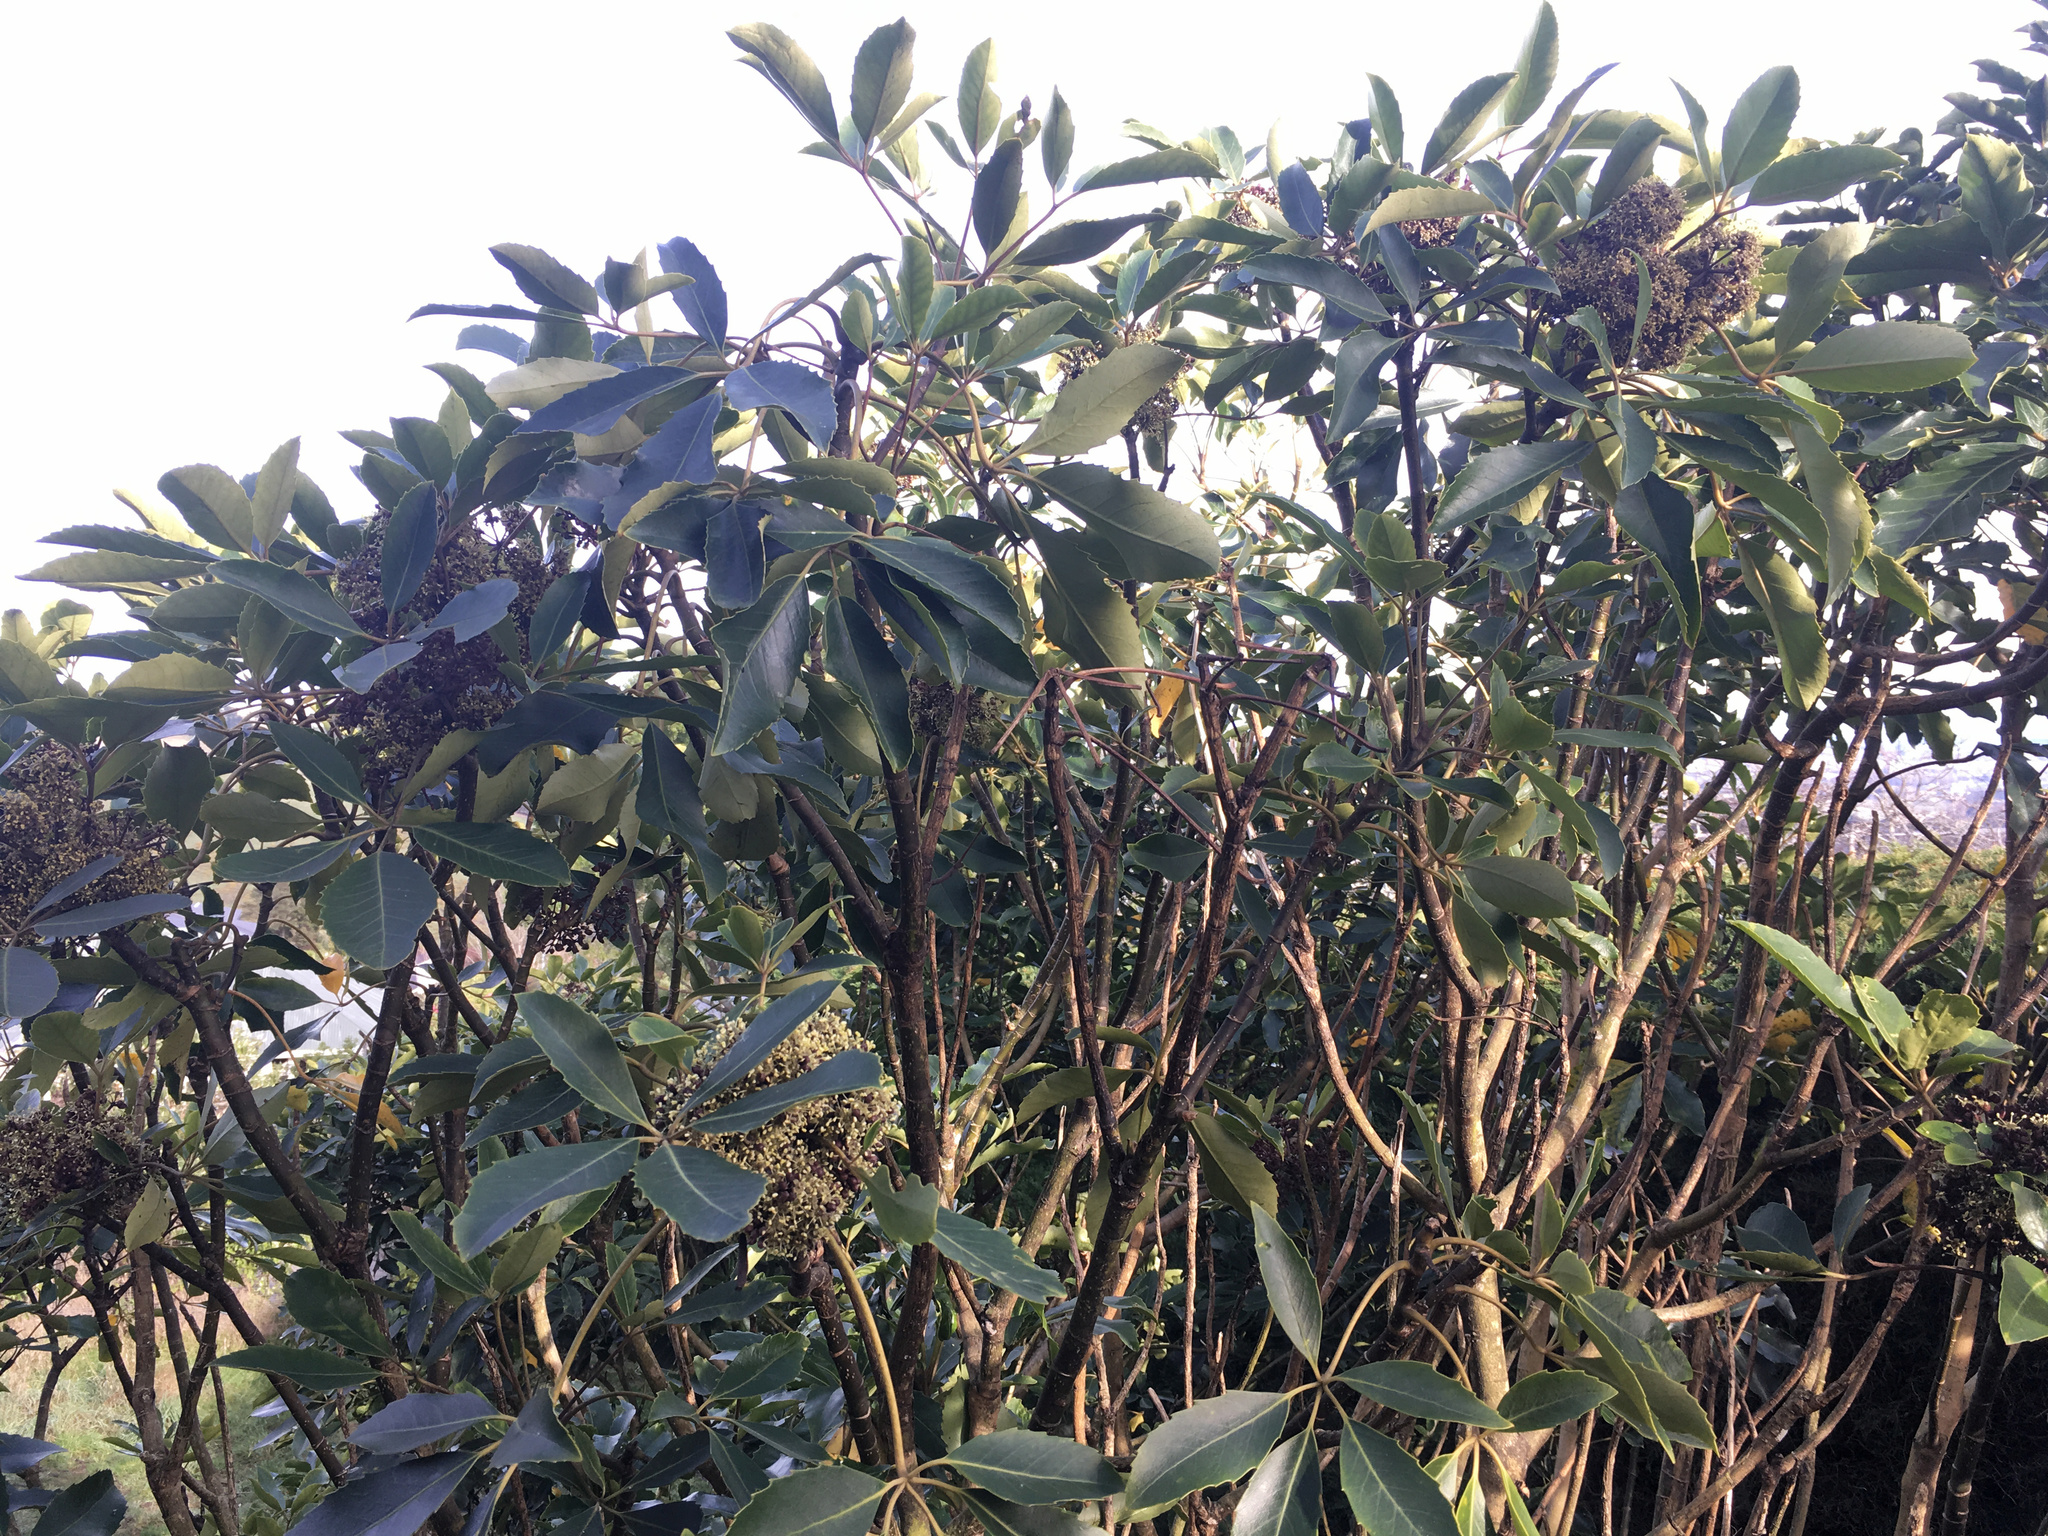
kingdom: Plantae
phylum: Tracheophyta
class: Magnoliopsida
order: Apiales
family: Araliaceae
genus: Neopanax
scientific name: Neopanax arboreus
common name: Five-fingers
